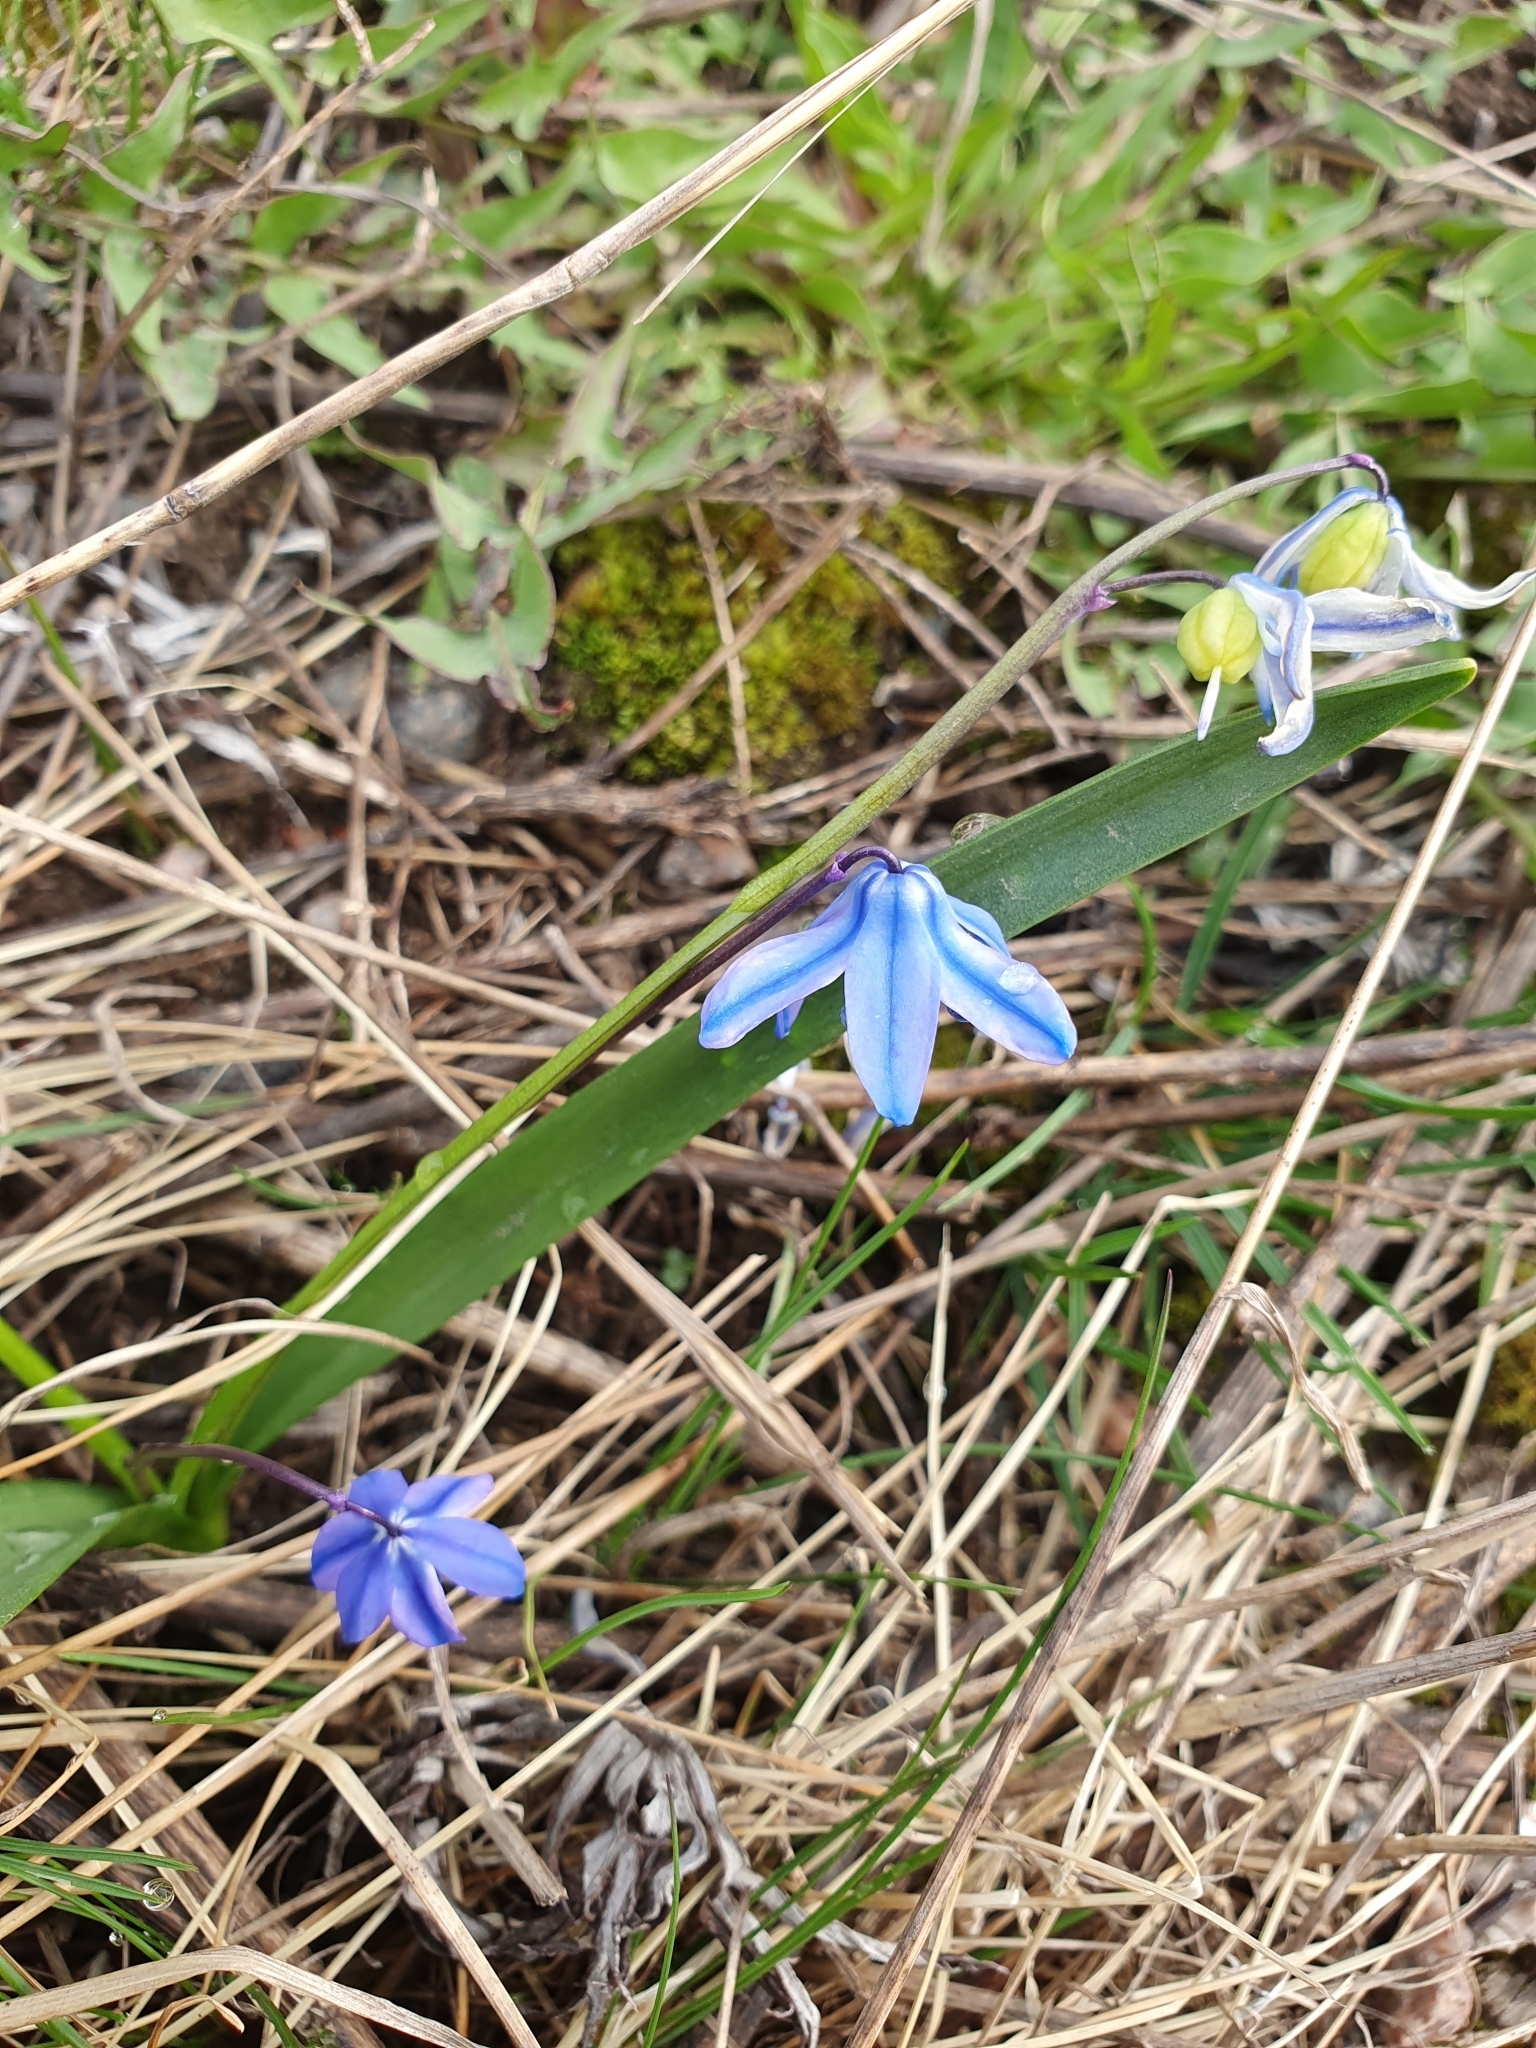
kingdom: Plantae
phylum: Tracheophyta
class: Liliopsida
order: Asparagales
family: Asparagaceae
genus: Scilla
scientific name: Scilla siberica
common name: Siberian squill
